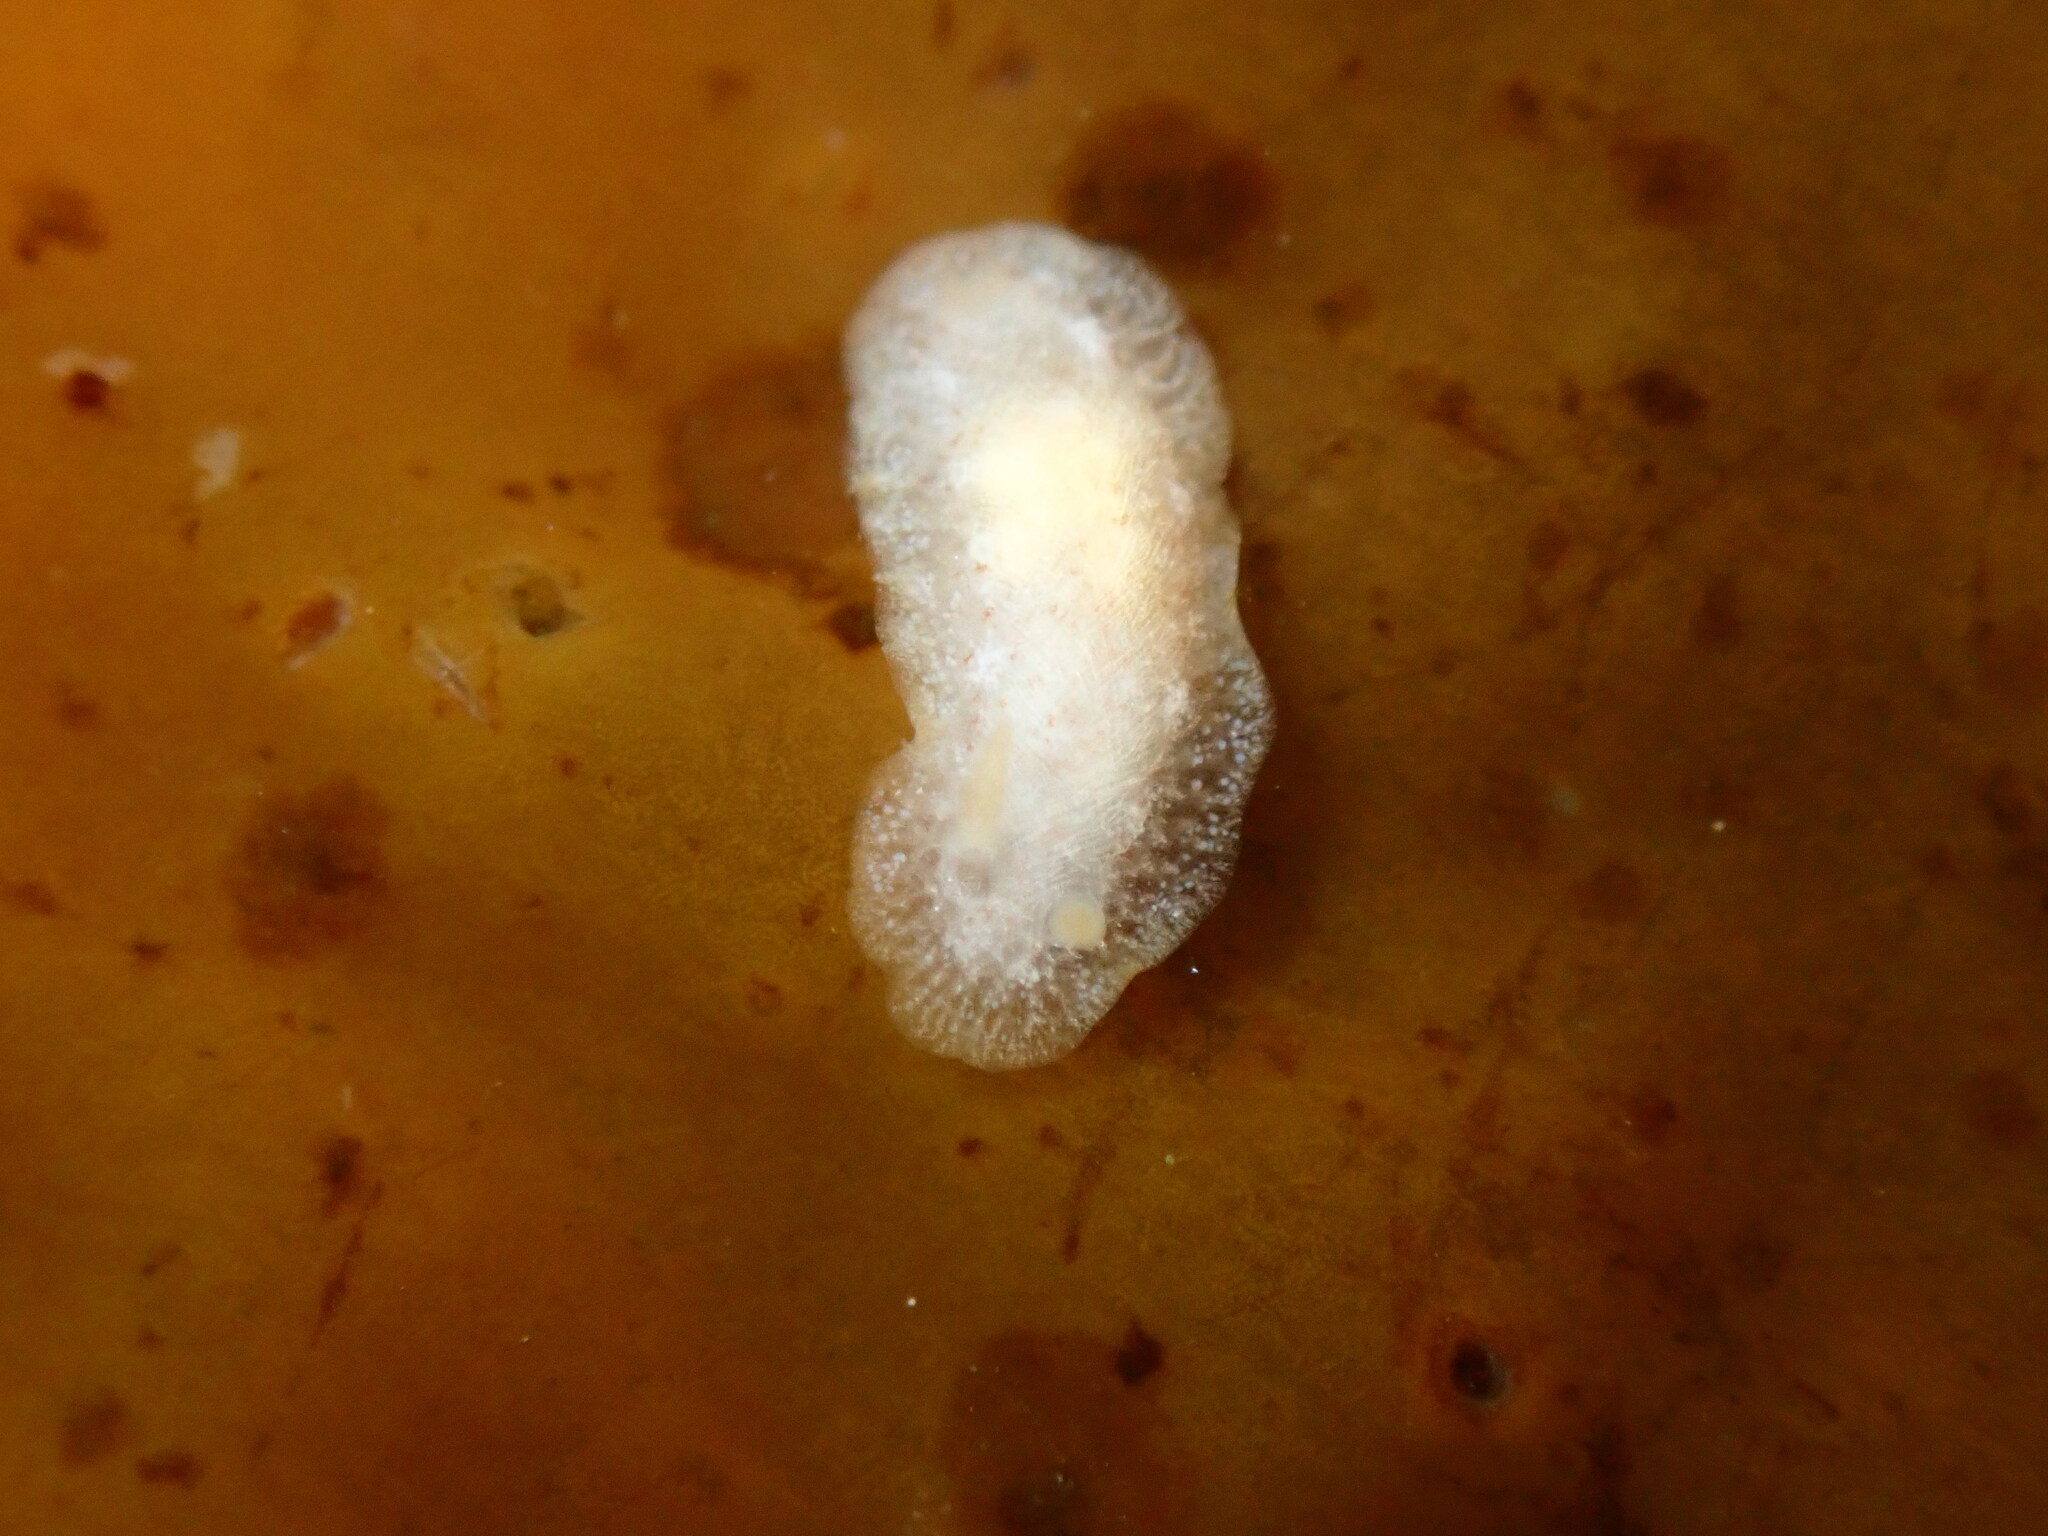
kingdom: Animalia
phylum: Mollusca
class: Gastropoda
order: Nudibranchia
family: Dendrodorididae
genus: Doriopsilla
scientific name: Doriopsilla rowena
